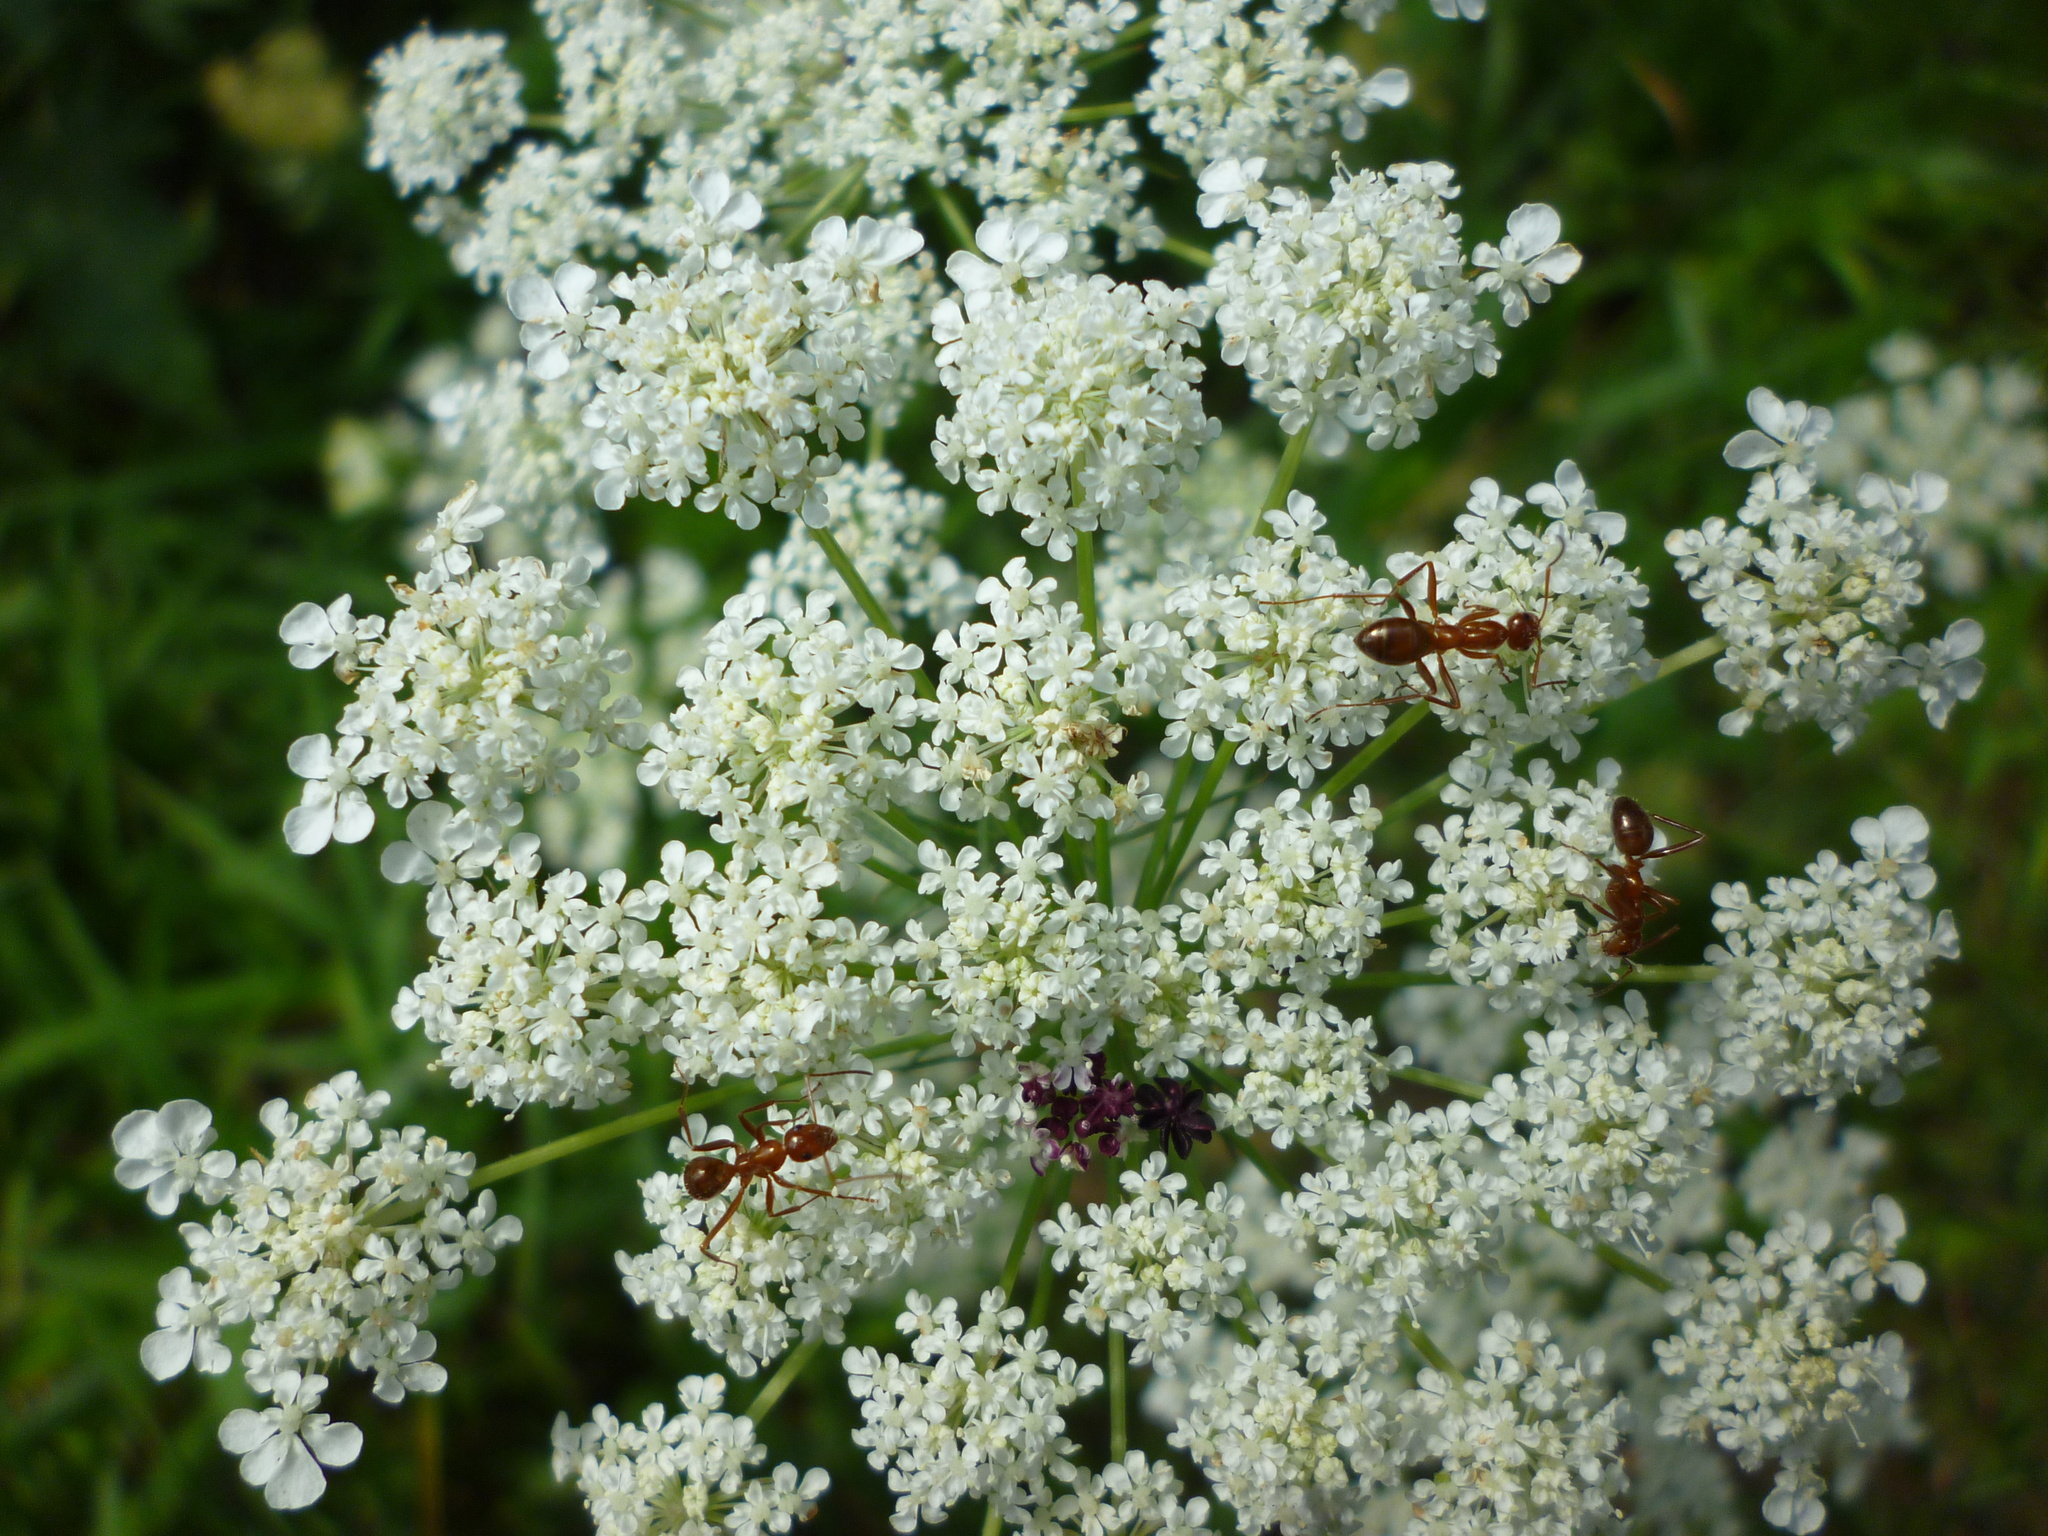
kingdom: Plantae
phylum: Tracheophyta
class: Magnoliopsida
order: Apiales
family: Apiaceae
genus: Daucus
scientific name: Daucus carota
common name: Wild carrot
